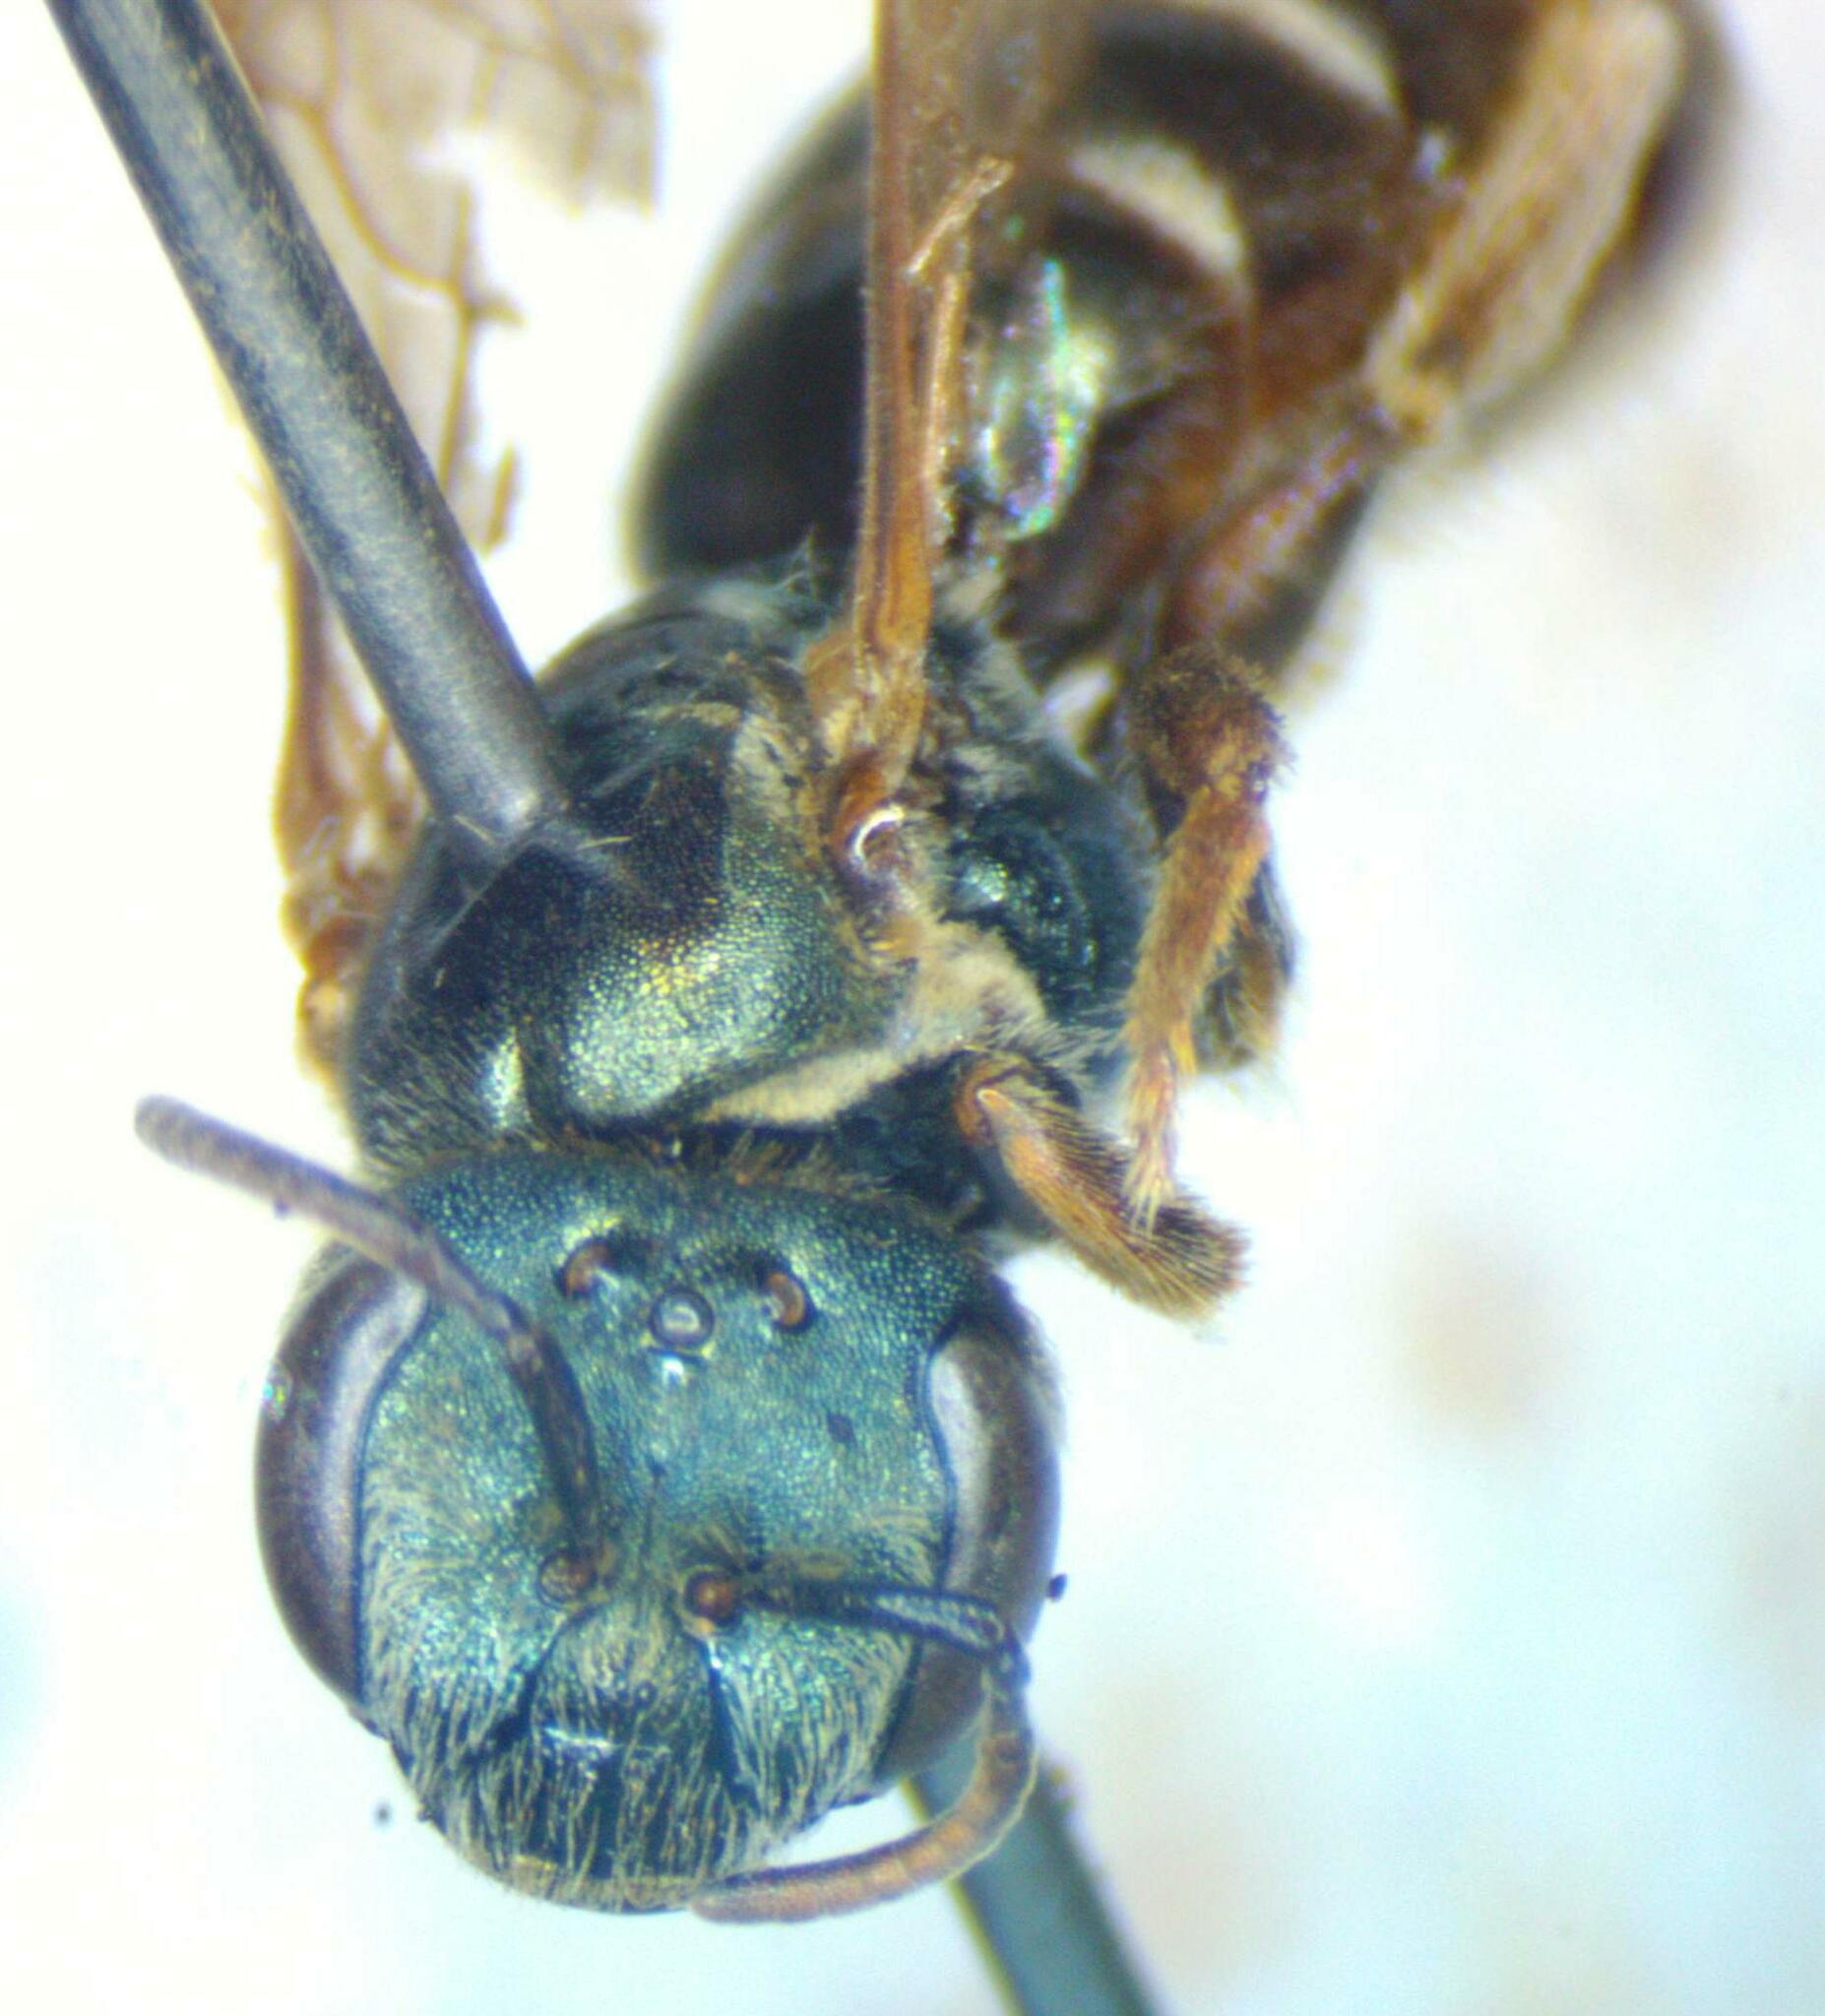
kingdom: Animalia
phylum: Arthropoda
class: Insecta
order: Hymenoptera
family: Halictidae
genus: Halictus
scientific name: Halictus hesperus
